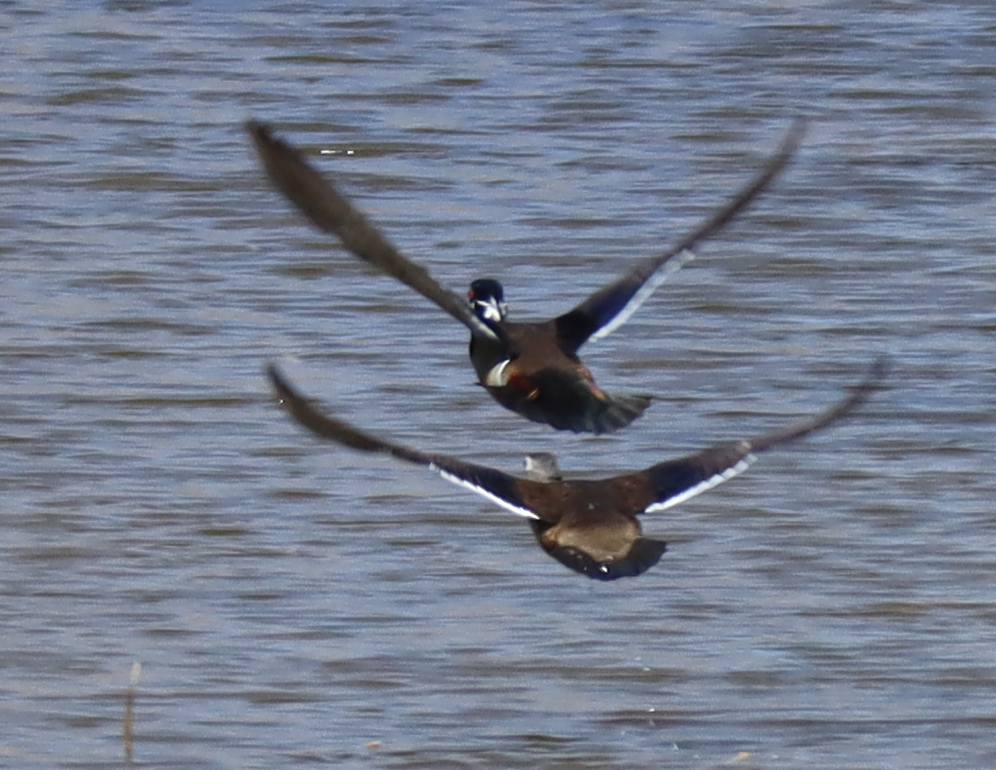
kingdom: Animalia
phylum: Chordata
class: Aves
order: Anseriformes
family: Anatidae
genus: Aix
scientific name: Aix sponsa
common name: Wood duck
